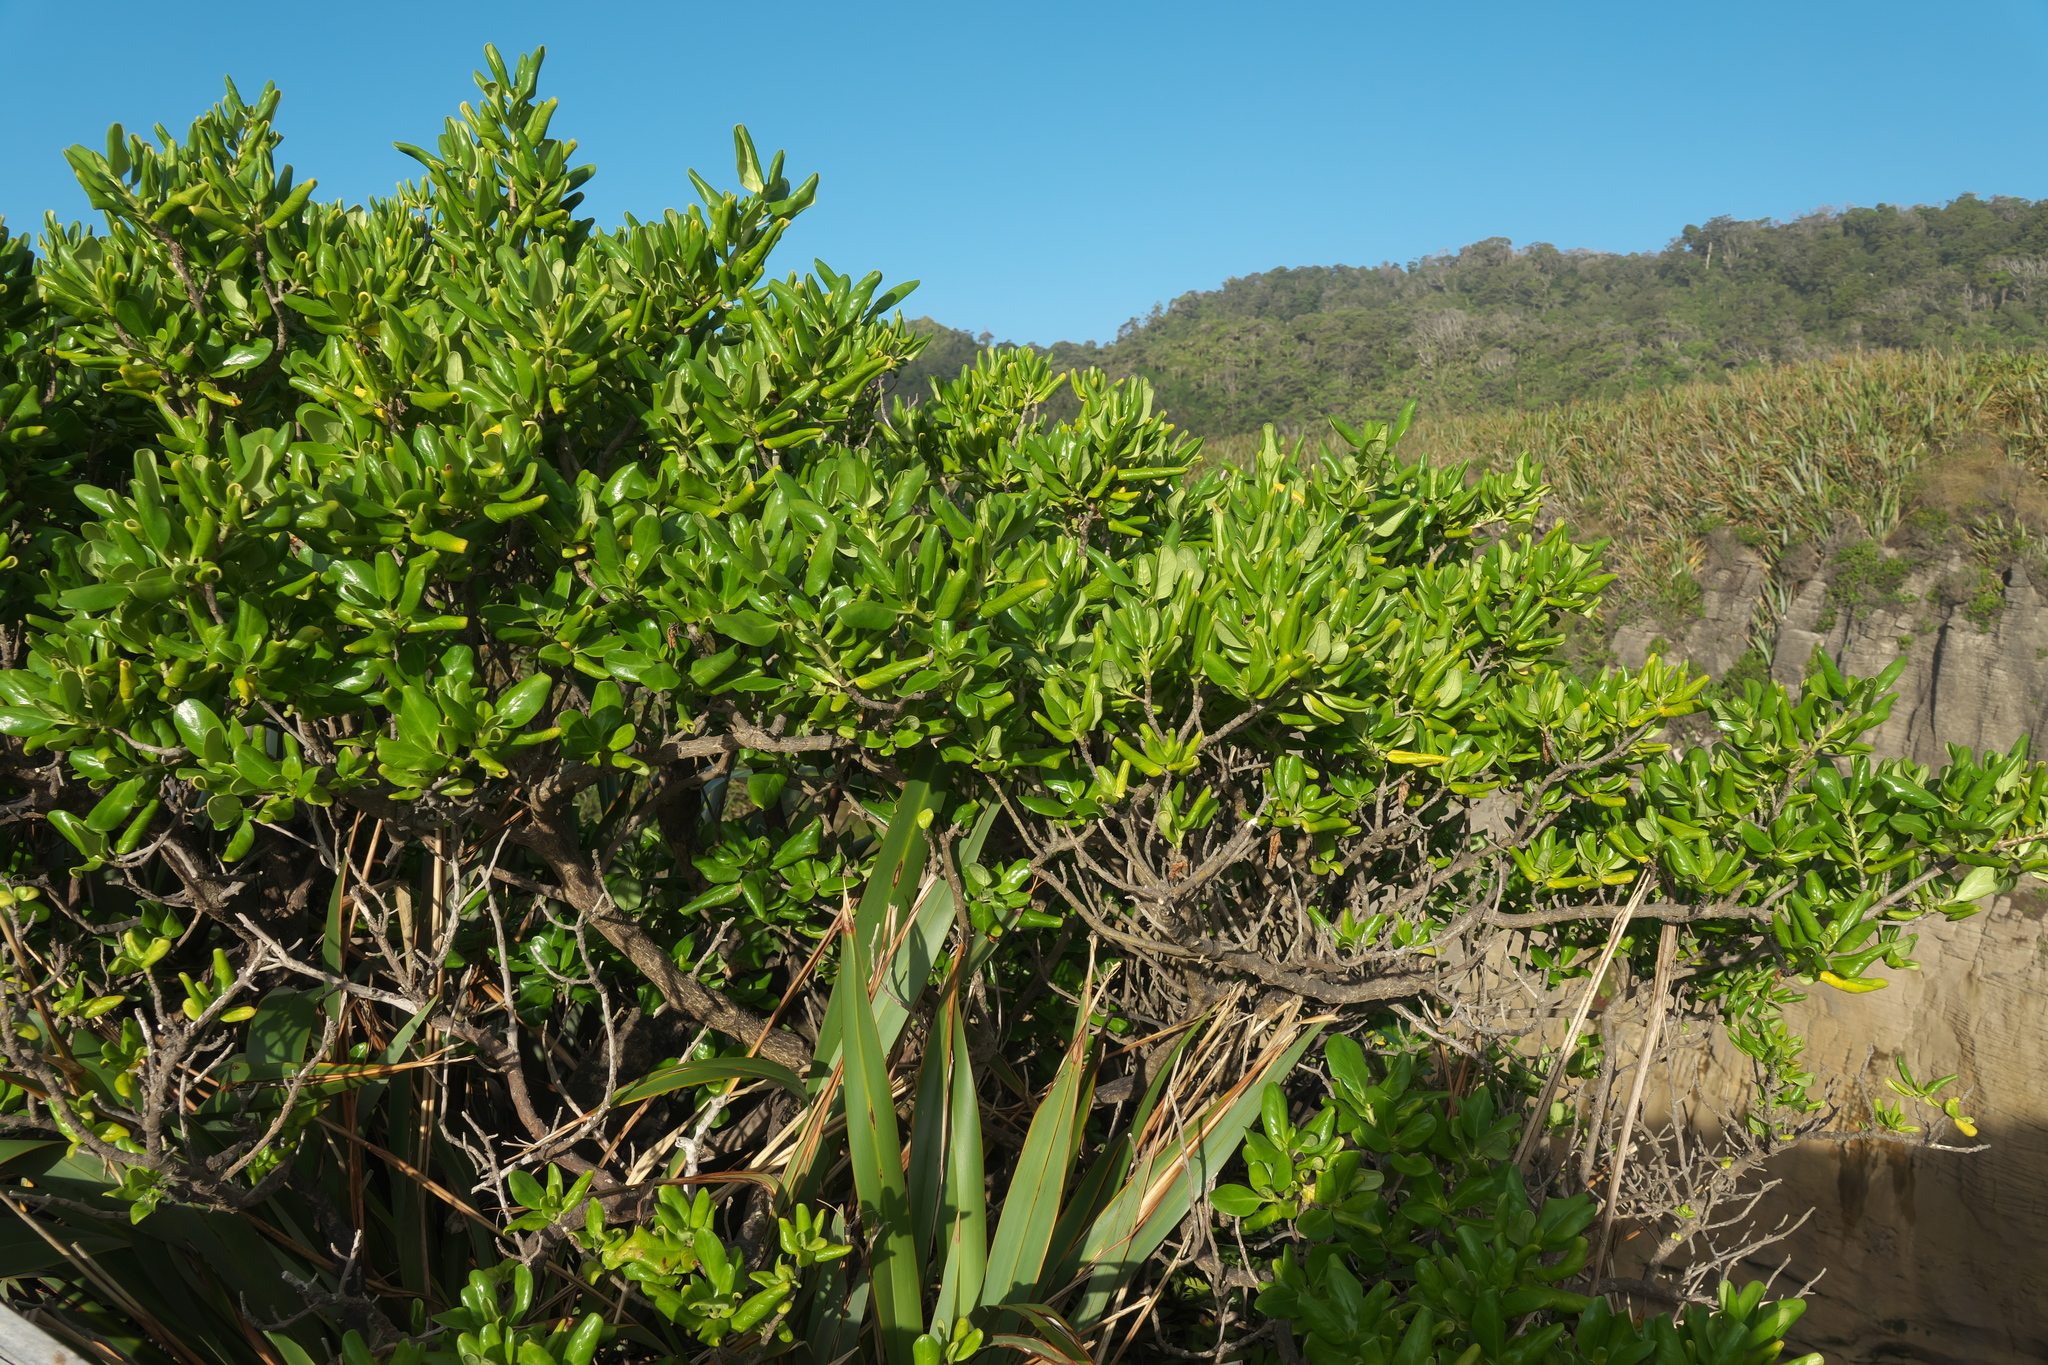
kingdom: Plantae
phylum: Tracheophyta
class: Magnoliopsida
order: Gentianales
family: Rubiaceae
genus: Coprosma
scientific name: Coprosma repens
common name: Tree bedstraw
